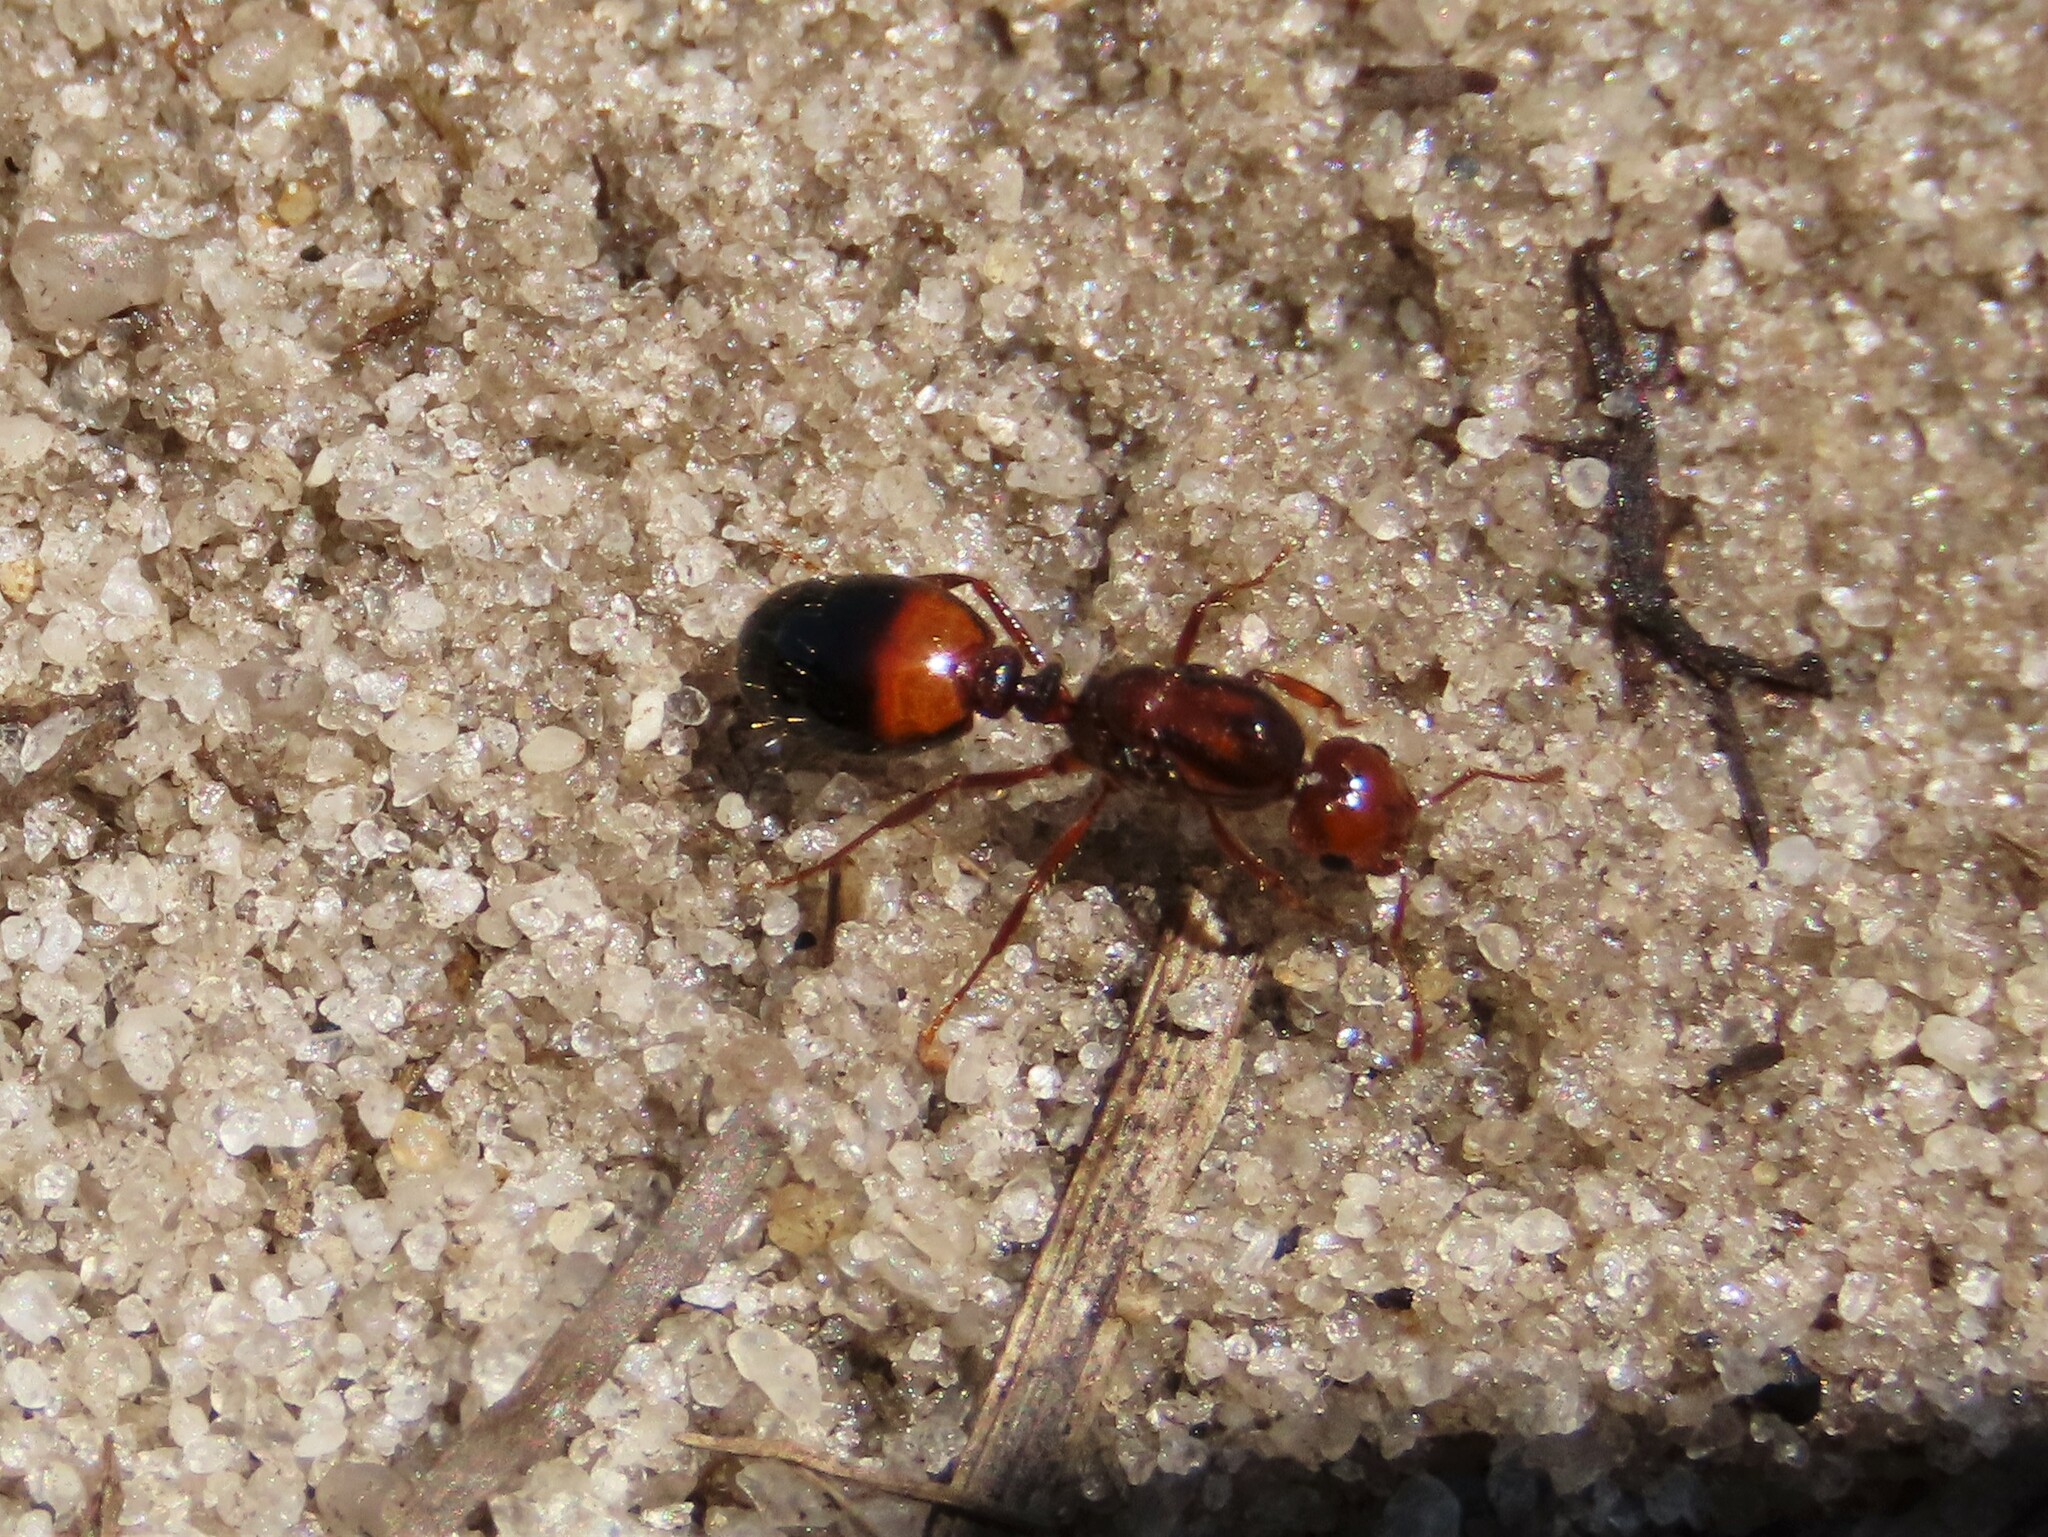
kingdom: Animalia
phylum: Arthropoda
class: Insecta
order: Hymenoptera
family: Formicidae
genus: Solenopsis
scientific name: Solenopsis invicta
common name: Red imported fire ant
